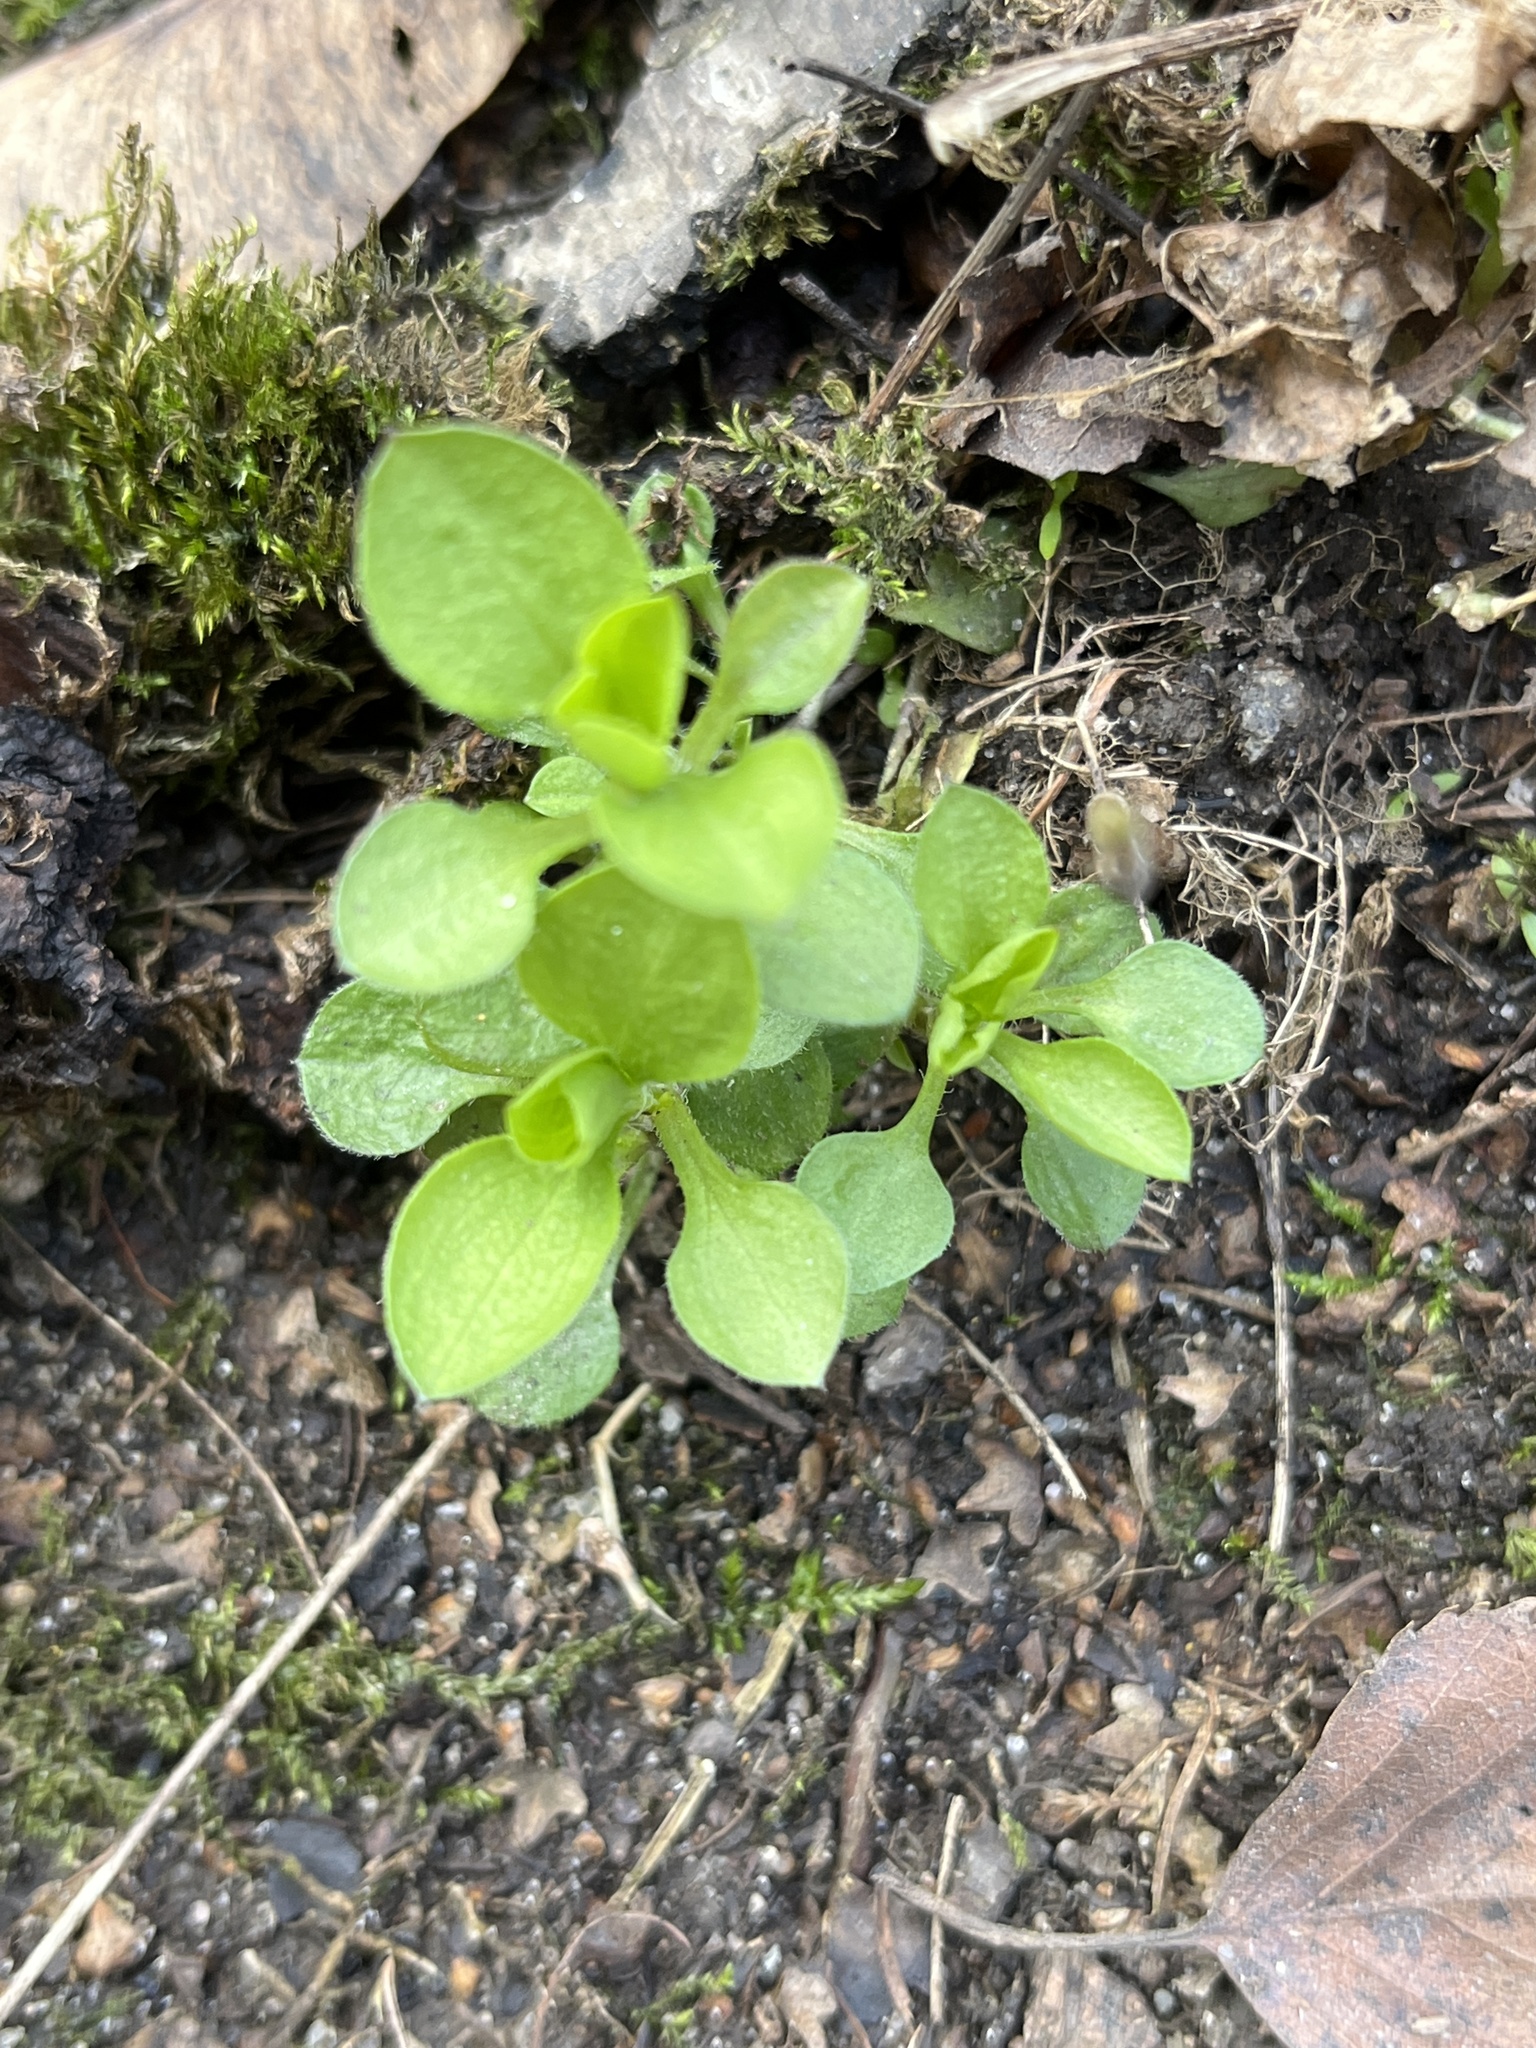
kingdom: Plantae
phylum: Tracheophyta
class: Magnoliopsida
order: Caryophyllales
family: Caryophyllaceae
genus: Moehringia
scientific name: Moehringia trinervia
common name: Three-nerved sandwort
